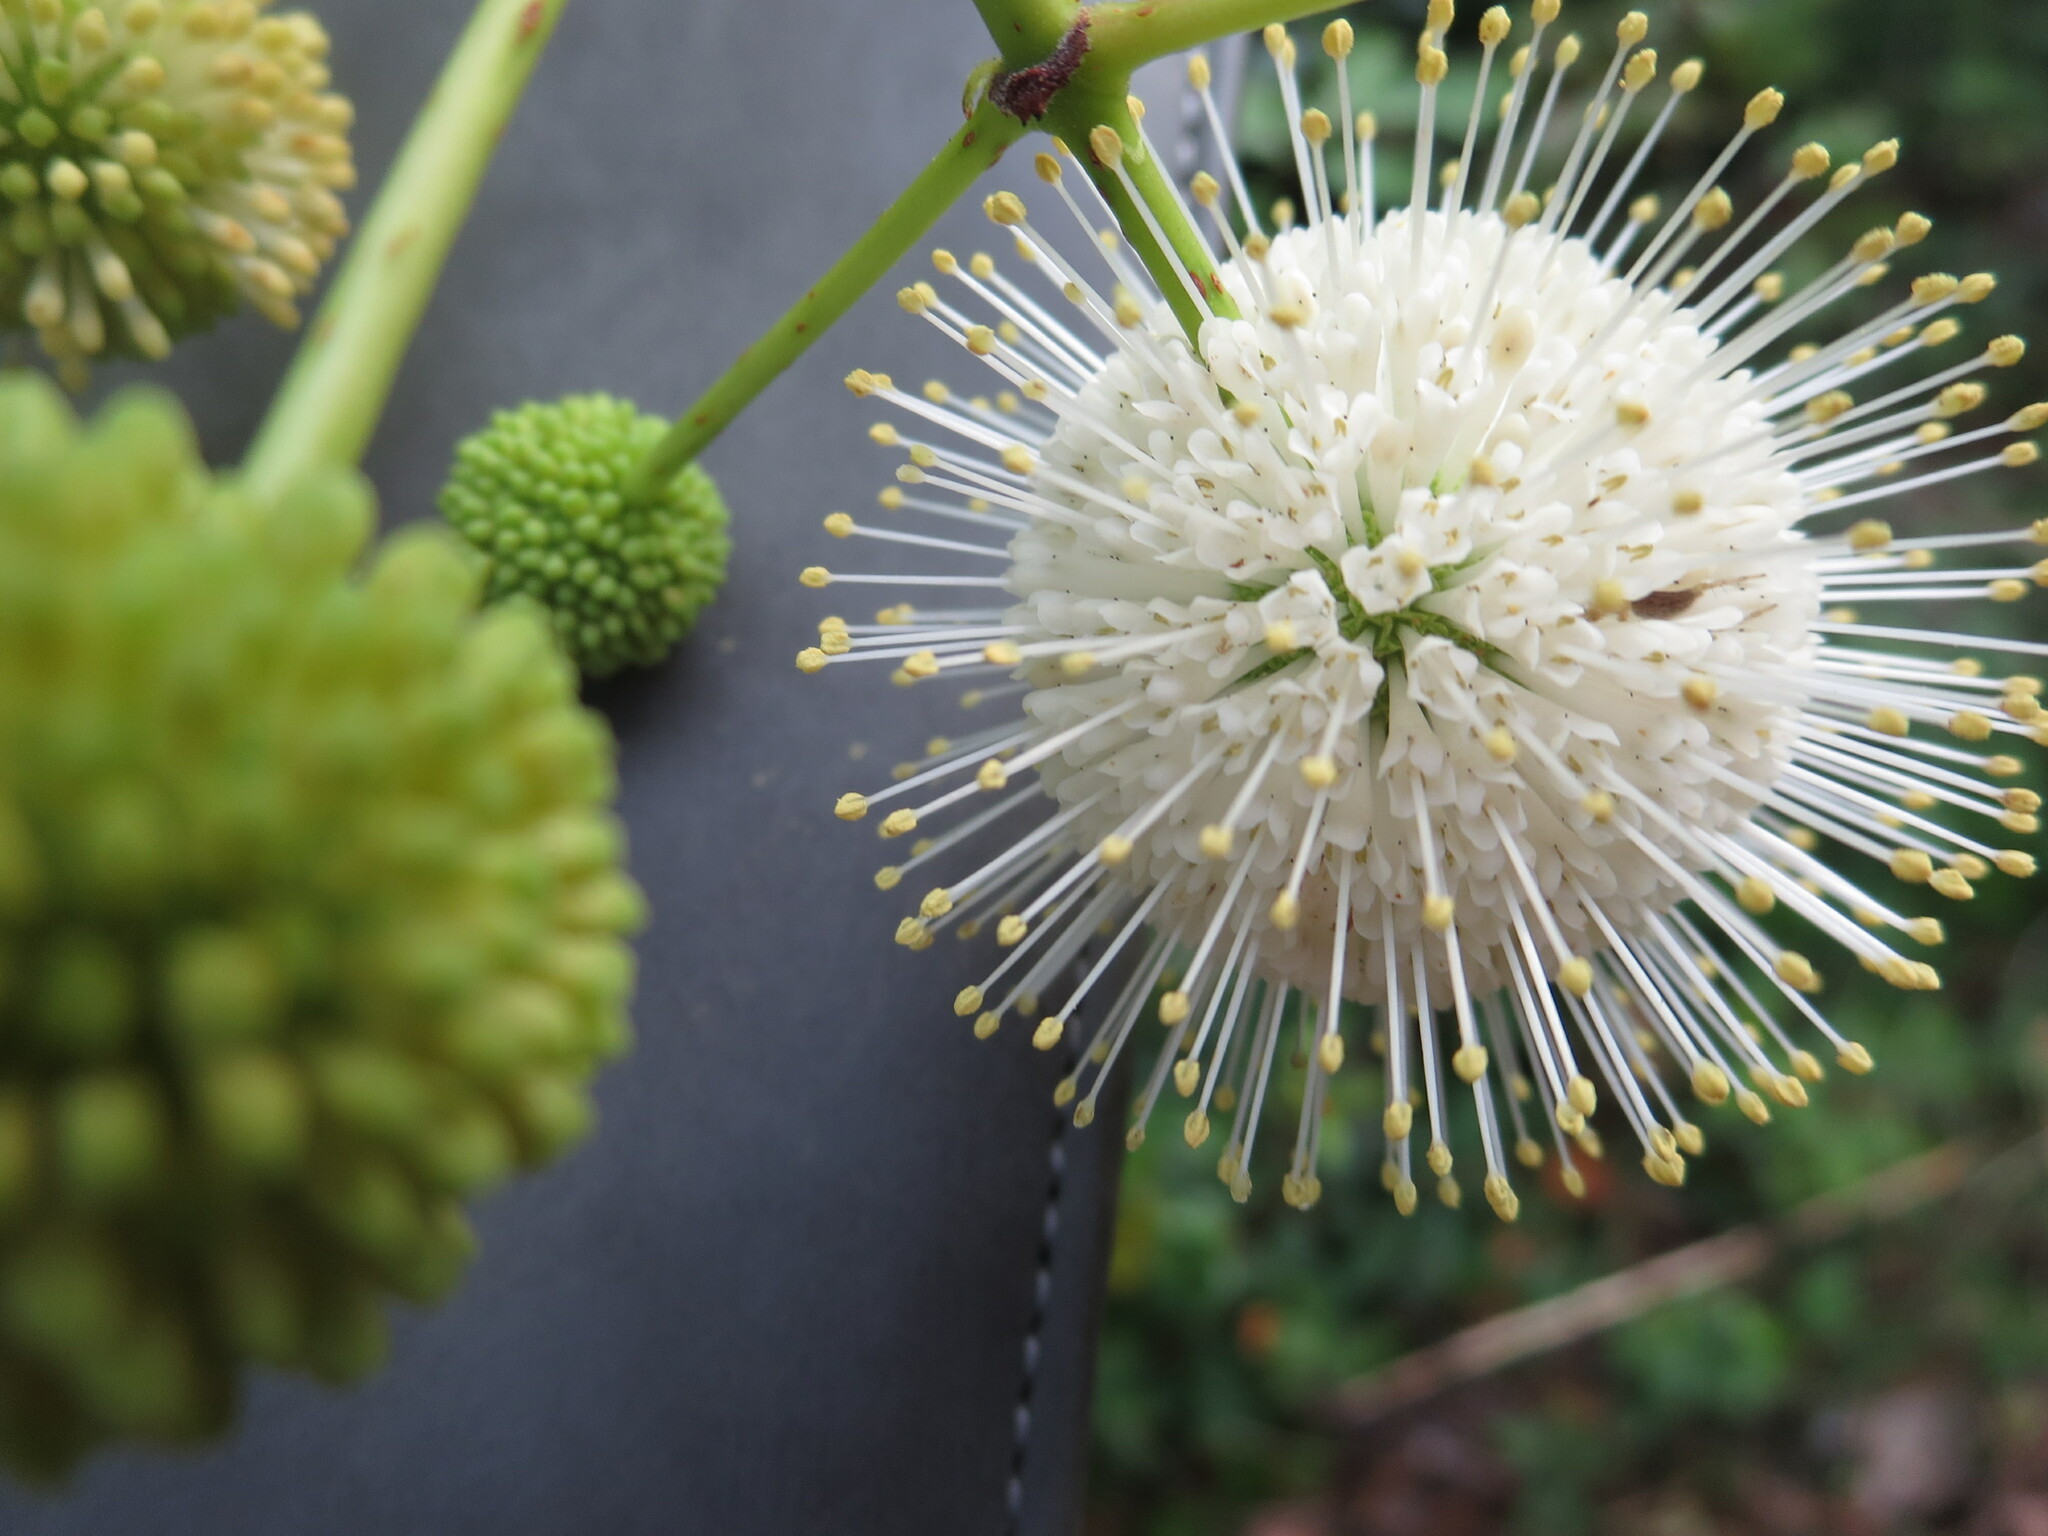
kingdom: Plantae
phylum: Tracheophyta
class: Magnoliopsida
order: Gentianales
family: Rubiaceae
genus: Cephalanthus
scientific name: Cephalanthus occidentalis
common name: Button-willow
